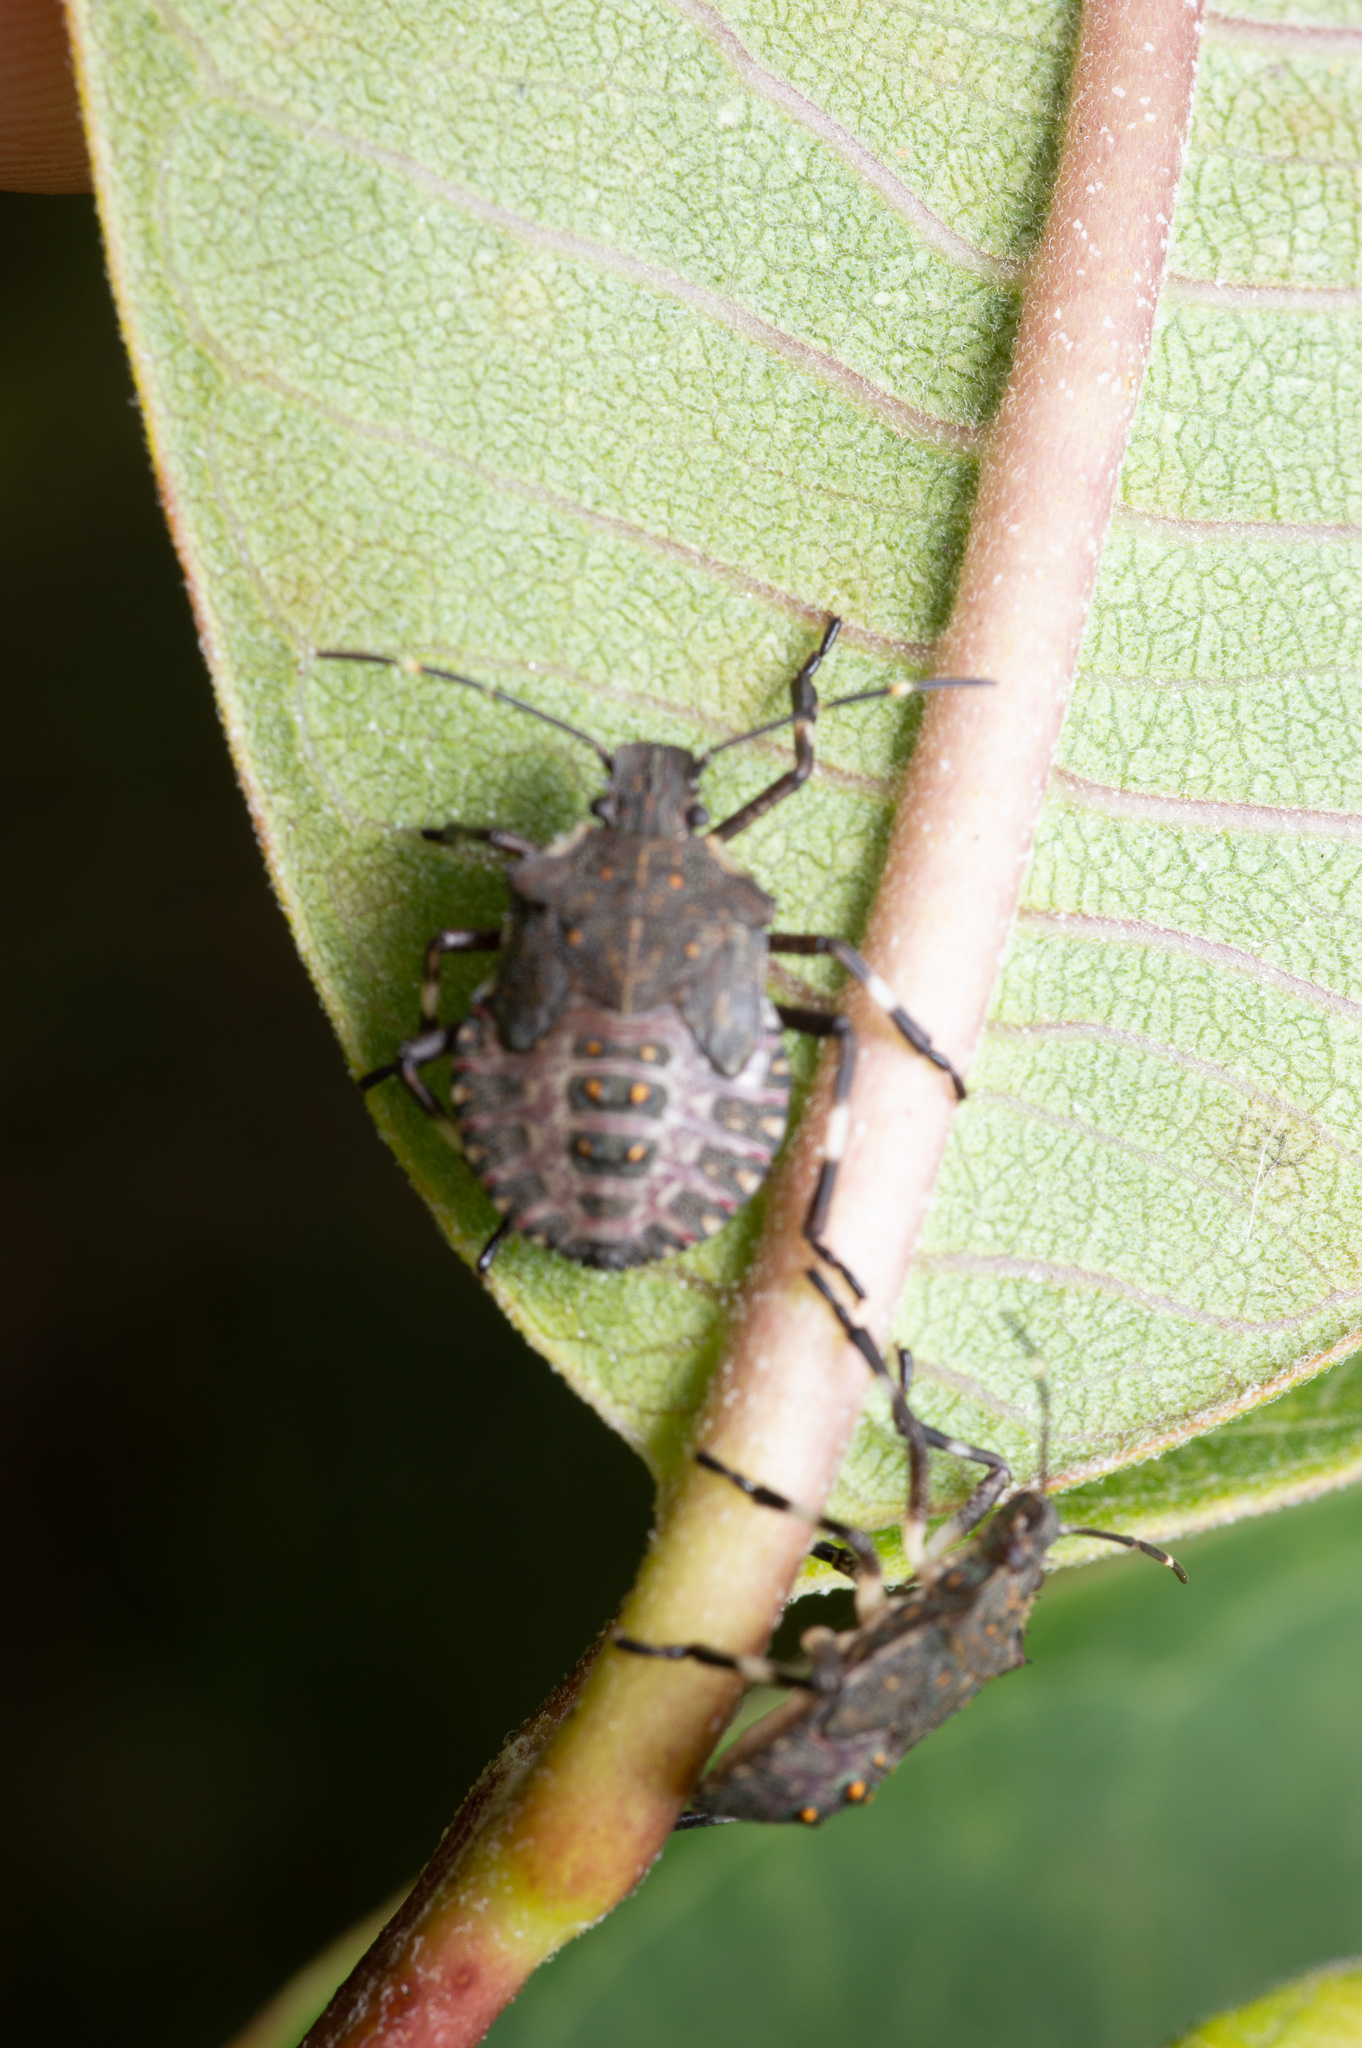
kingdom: Animalia
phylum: Arthropoda
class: Insecta
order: Hemiptera
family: Pentatomidae
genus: Halyomorpha
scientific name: Halyomorpha halys
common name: Brown marmorated stink bug
